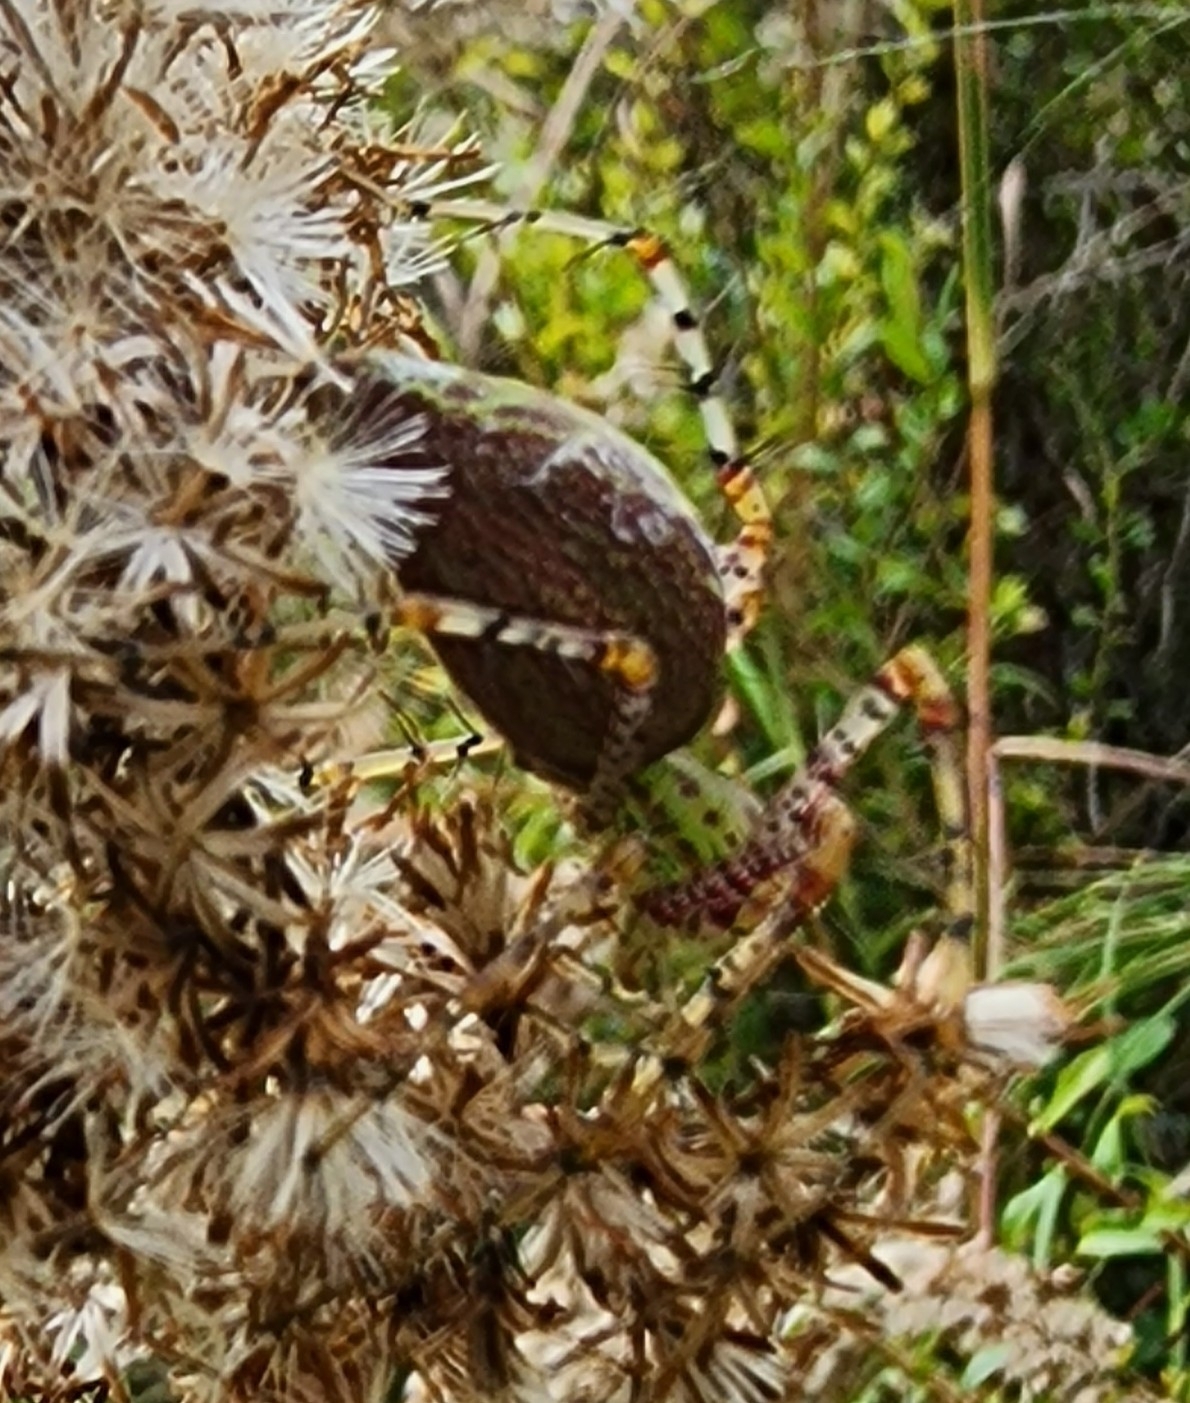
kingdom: Animalia
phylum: Arthropoda
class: Arachnida
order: Araneae
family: Oxyopidae
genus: Peucetia
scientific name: Peucetia viridans
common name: Lynx spiders
